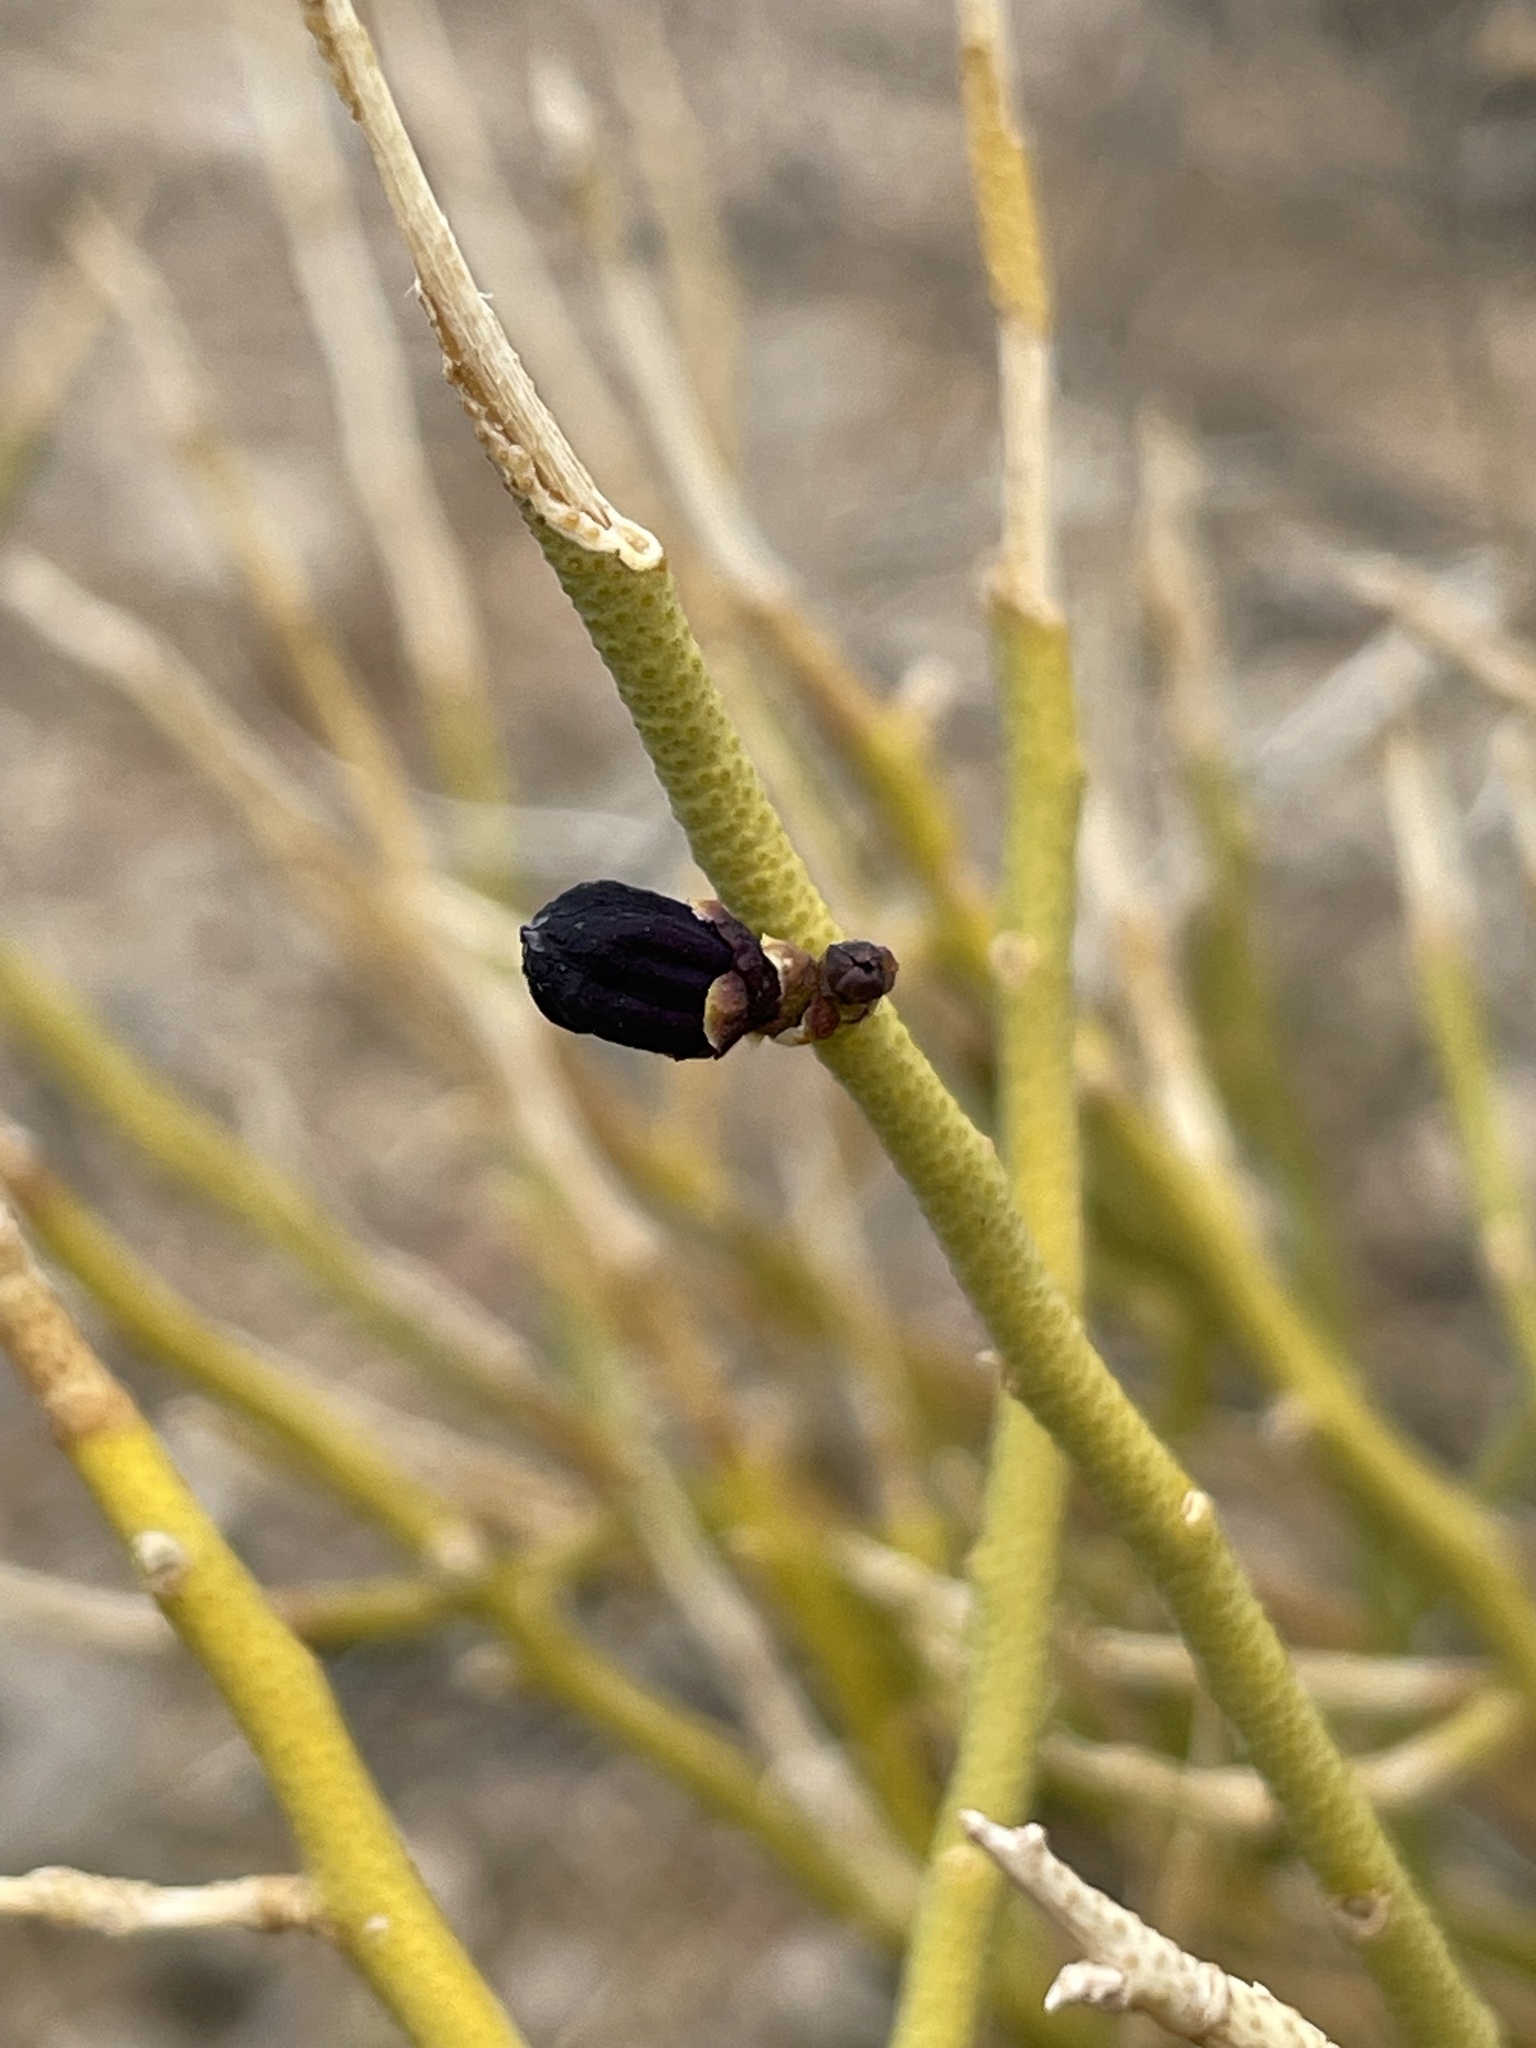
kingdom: Plantae
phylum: Tracheophyta
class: Magnoliopsida
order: Sapindales
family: Rutaceae
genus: Thamnosma
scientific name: Thamnosma montana
